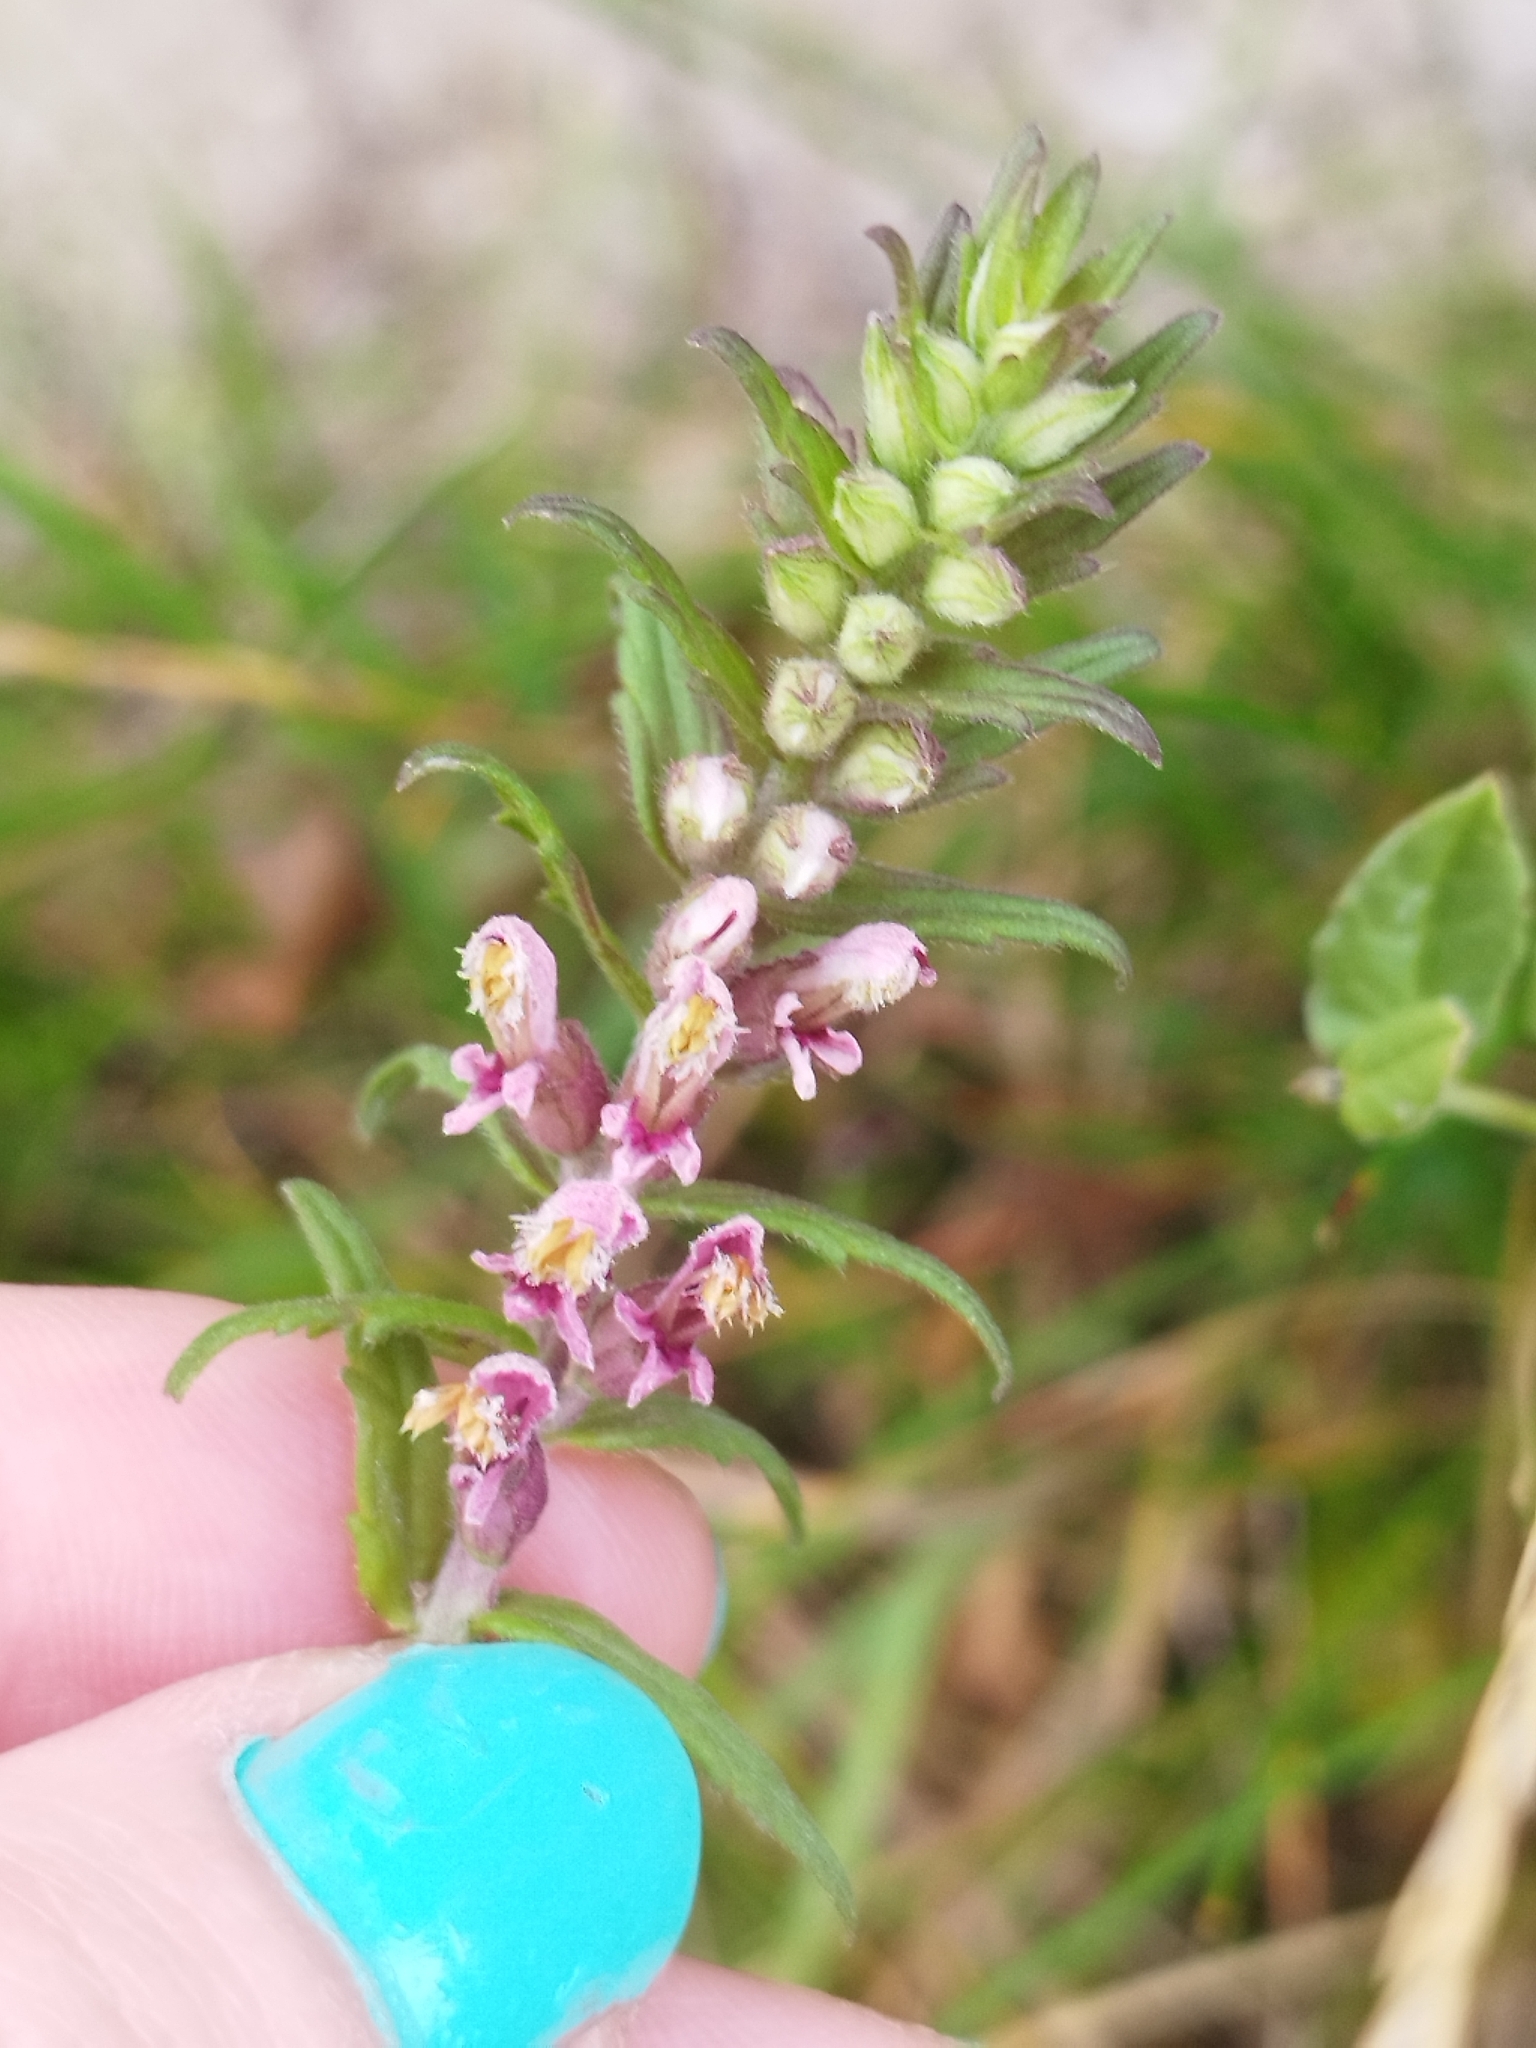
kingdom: Plantae
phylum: Tracheophyta
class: Magnoliopsida
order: Lamiales
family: Orobanchaceae
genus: Odontites
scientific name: Odontites vulgaris
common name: Broomrape
